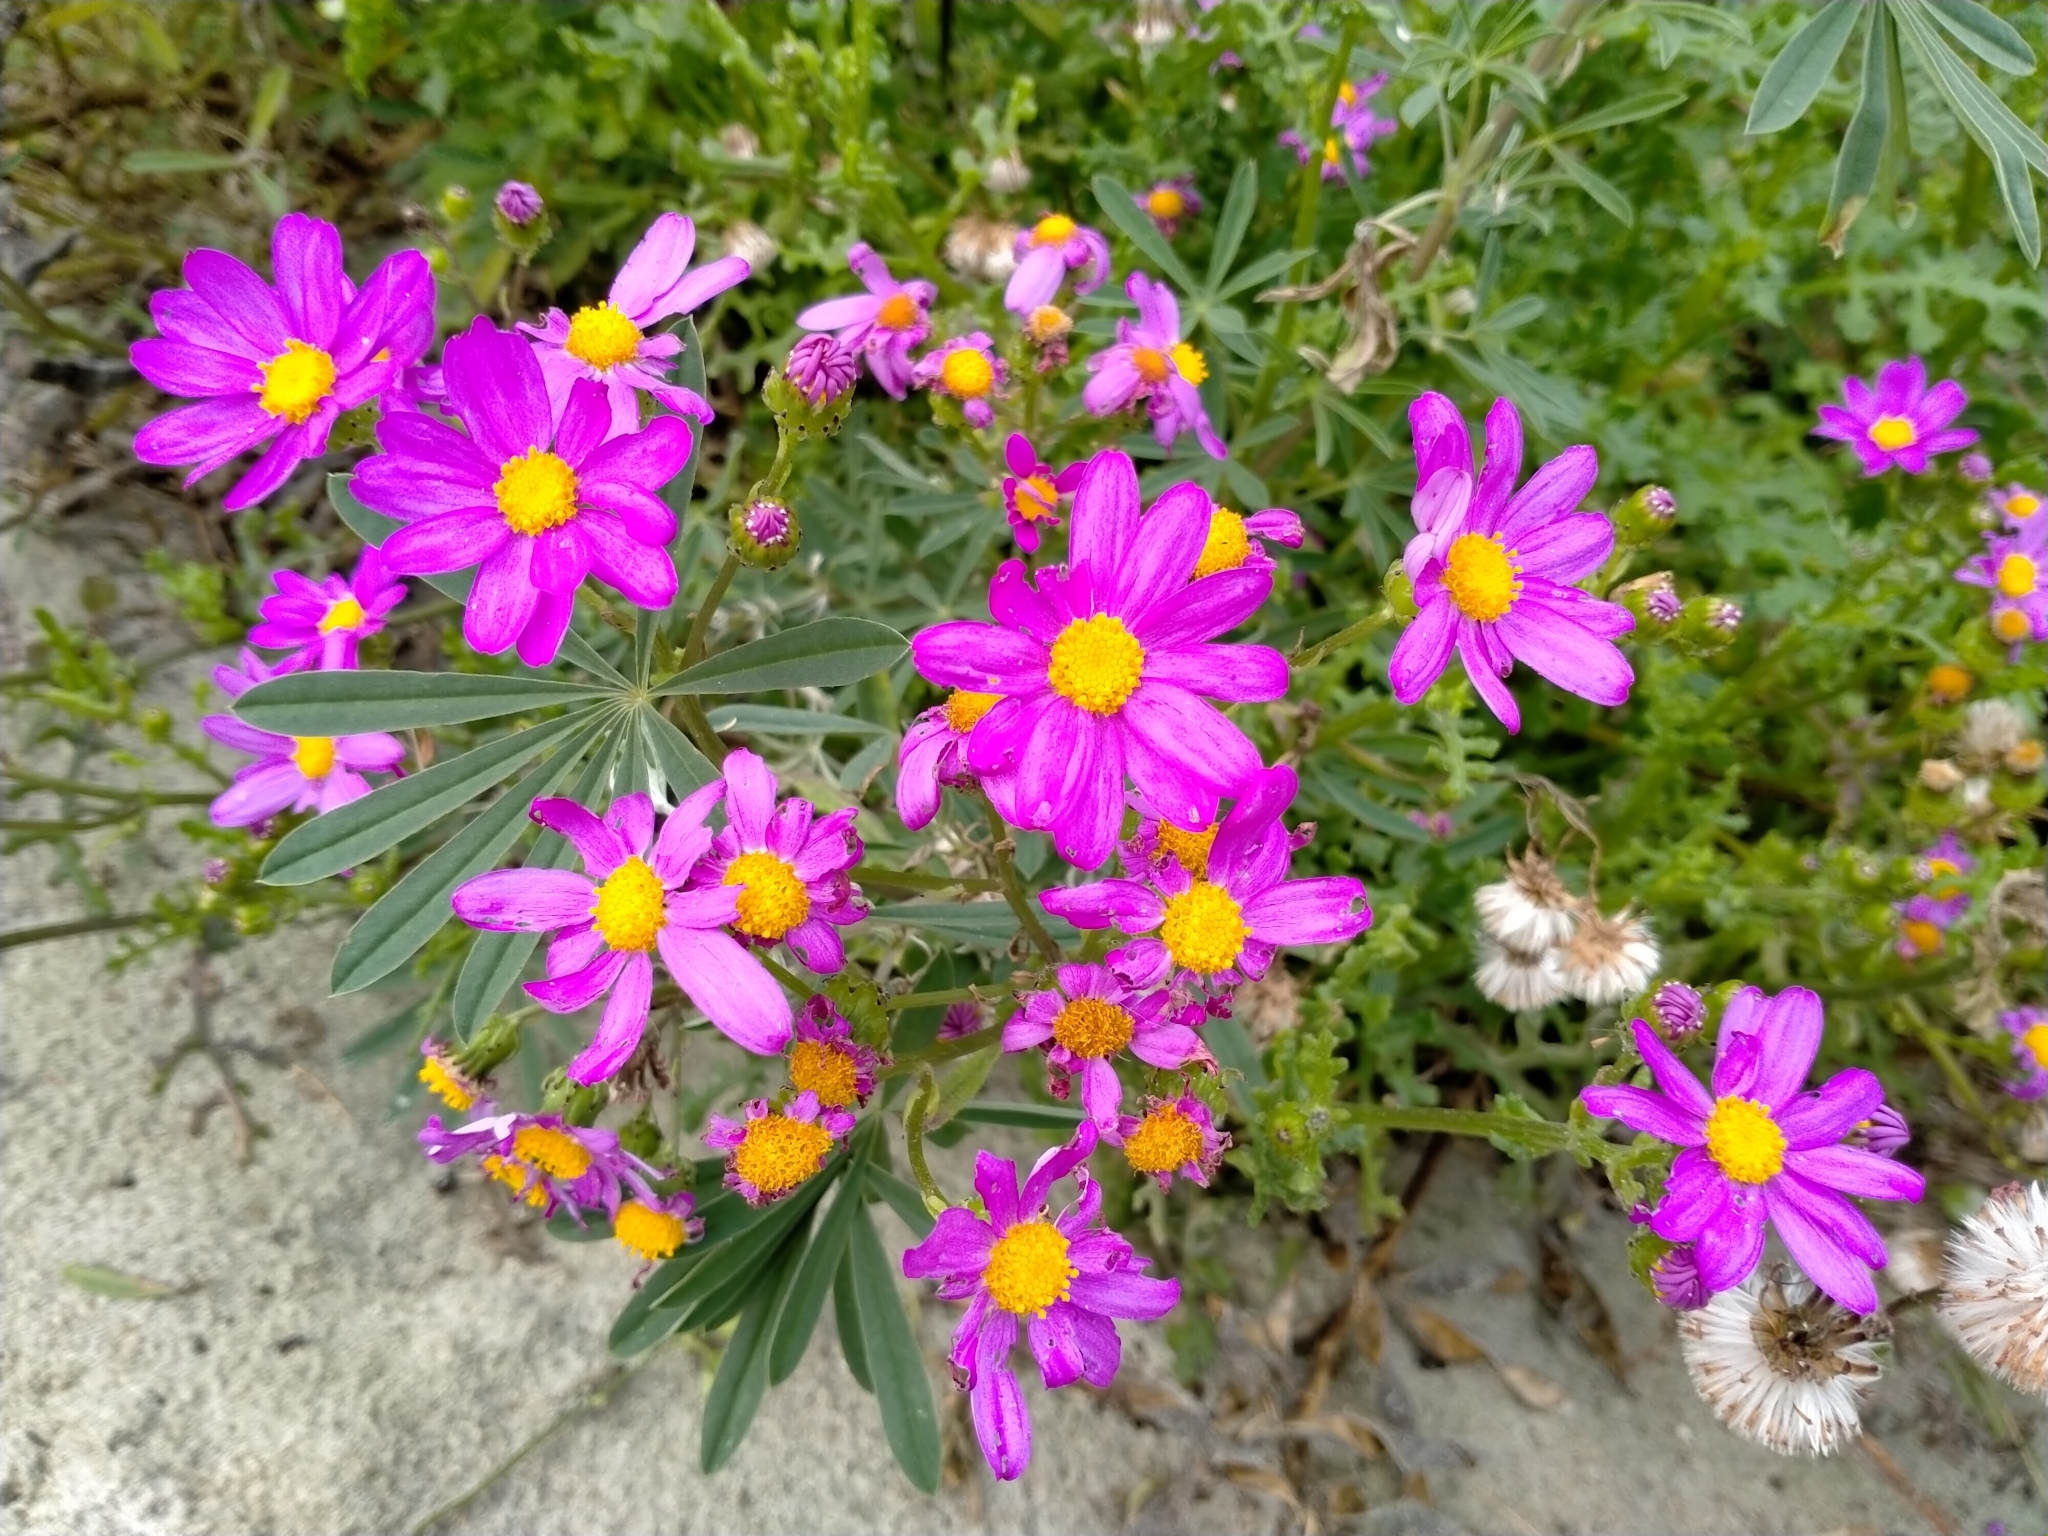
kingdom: Plantae
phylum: Tracheophyta
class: Magnoliopsida
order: Asterales
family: Asteraceae
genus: Senecio
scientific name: Senecio elegans
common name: Purple groundsel
